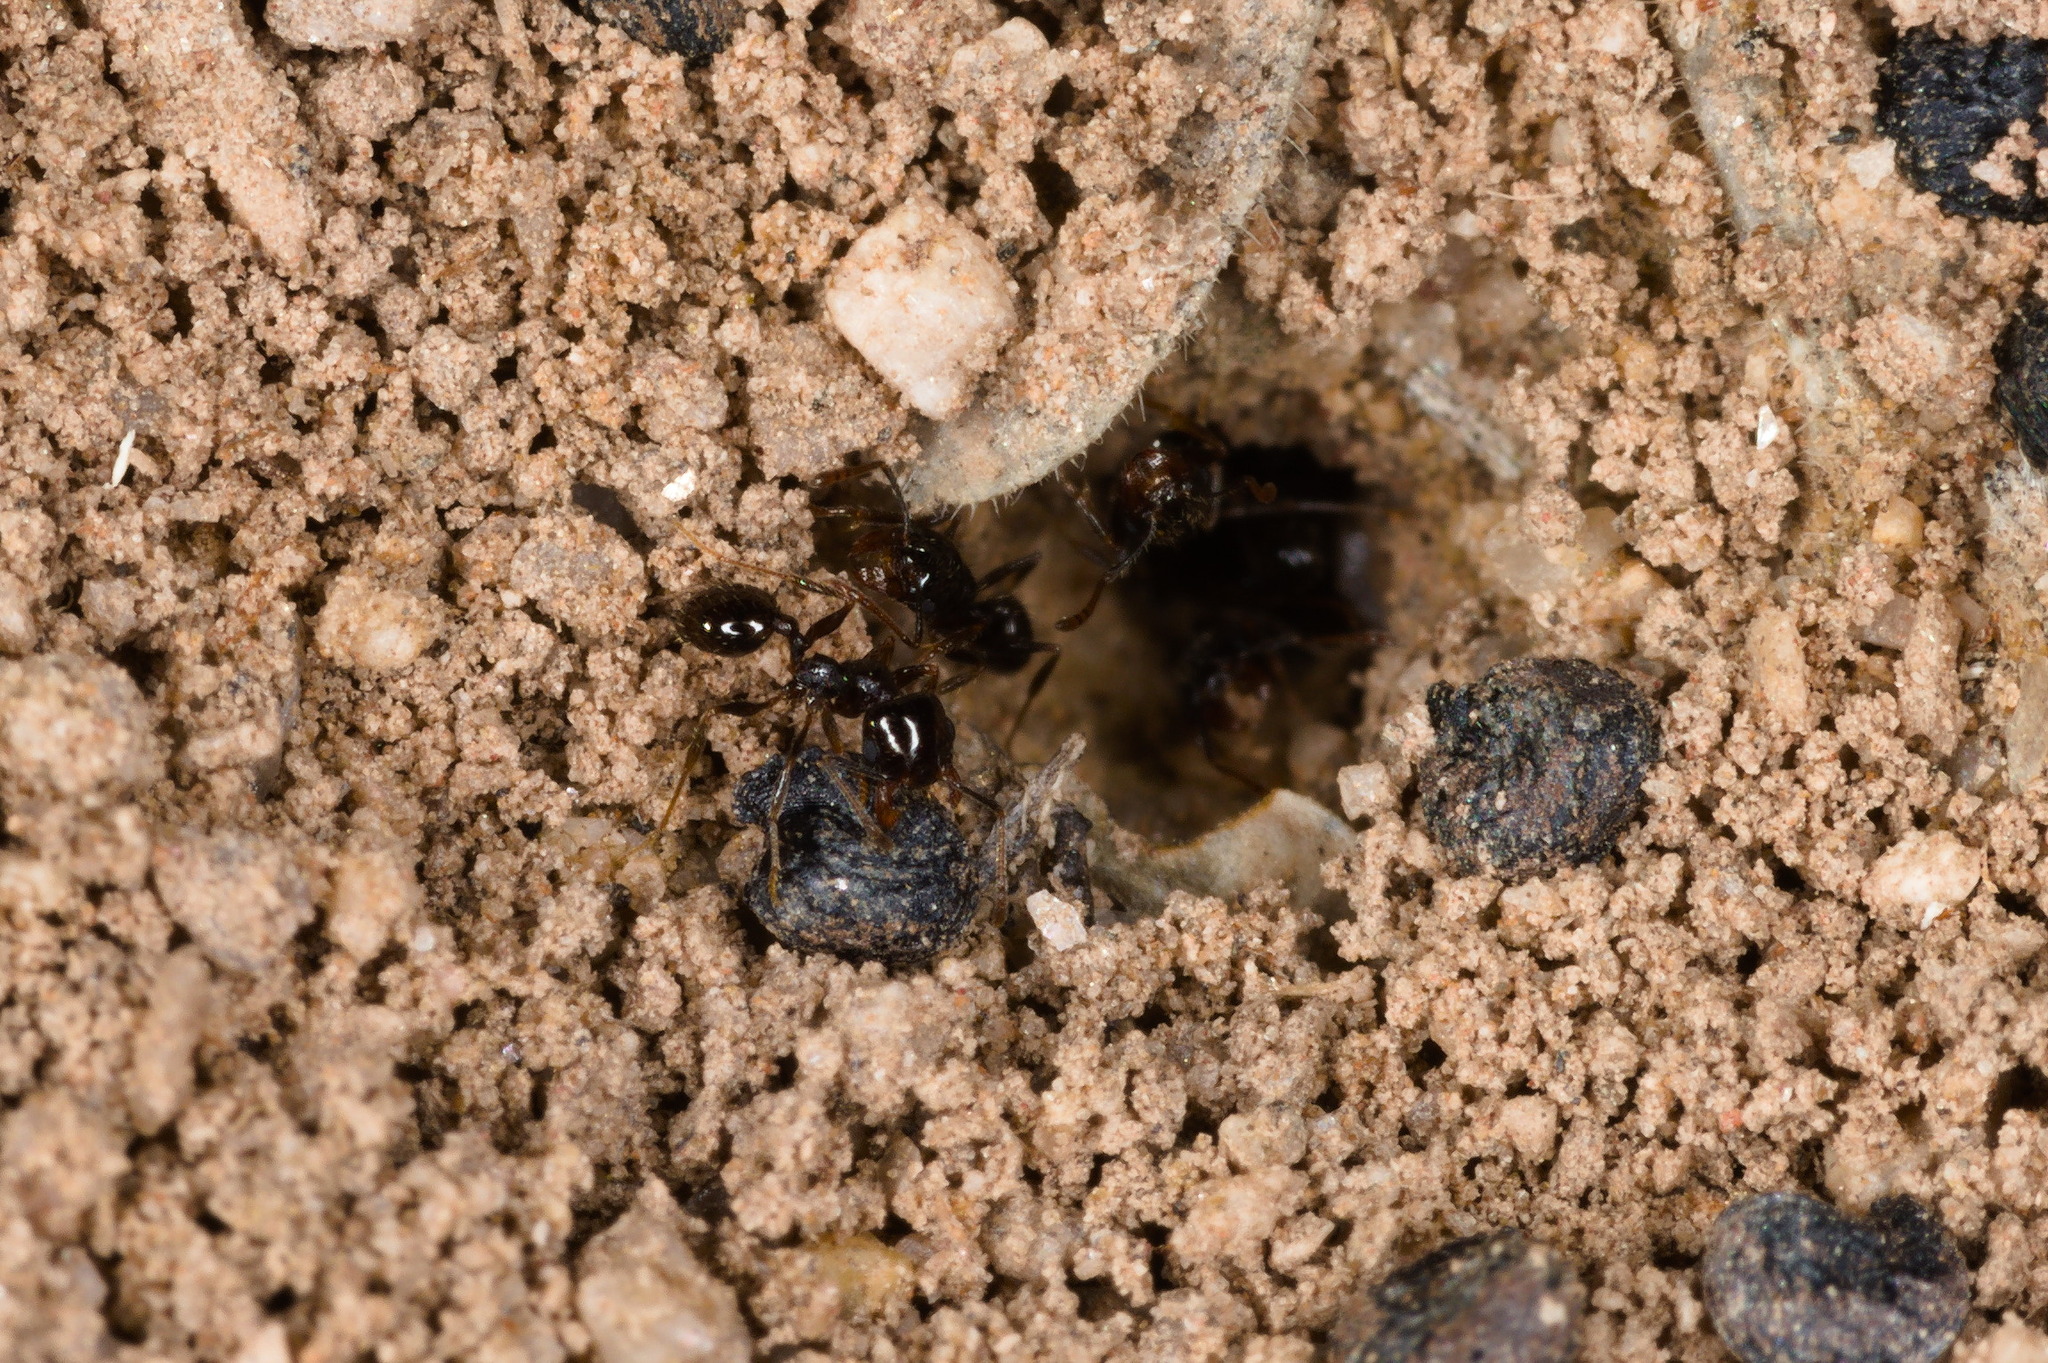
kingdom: Animalia
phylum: Arthropoda
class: Insecta
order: Hymenoptera
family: Formicidae
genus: Pheidole
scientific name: Pheidole xerophila
